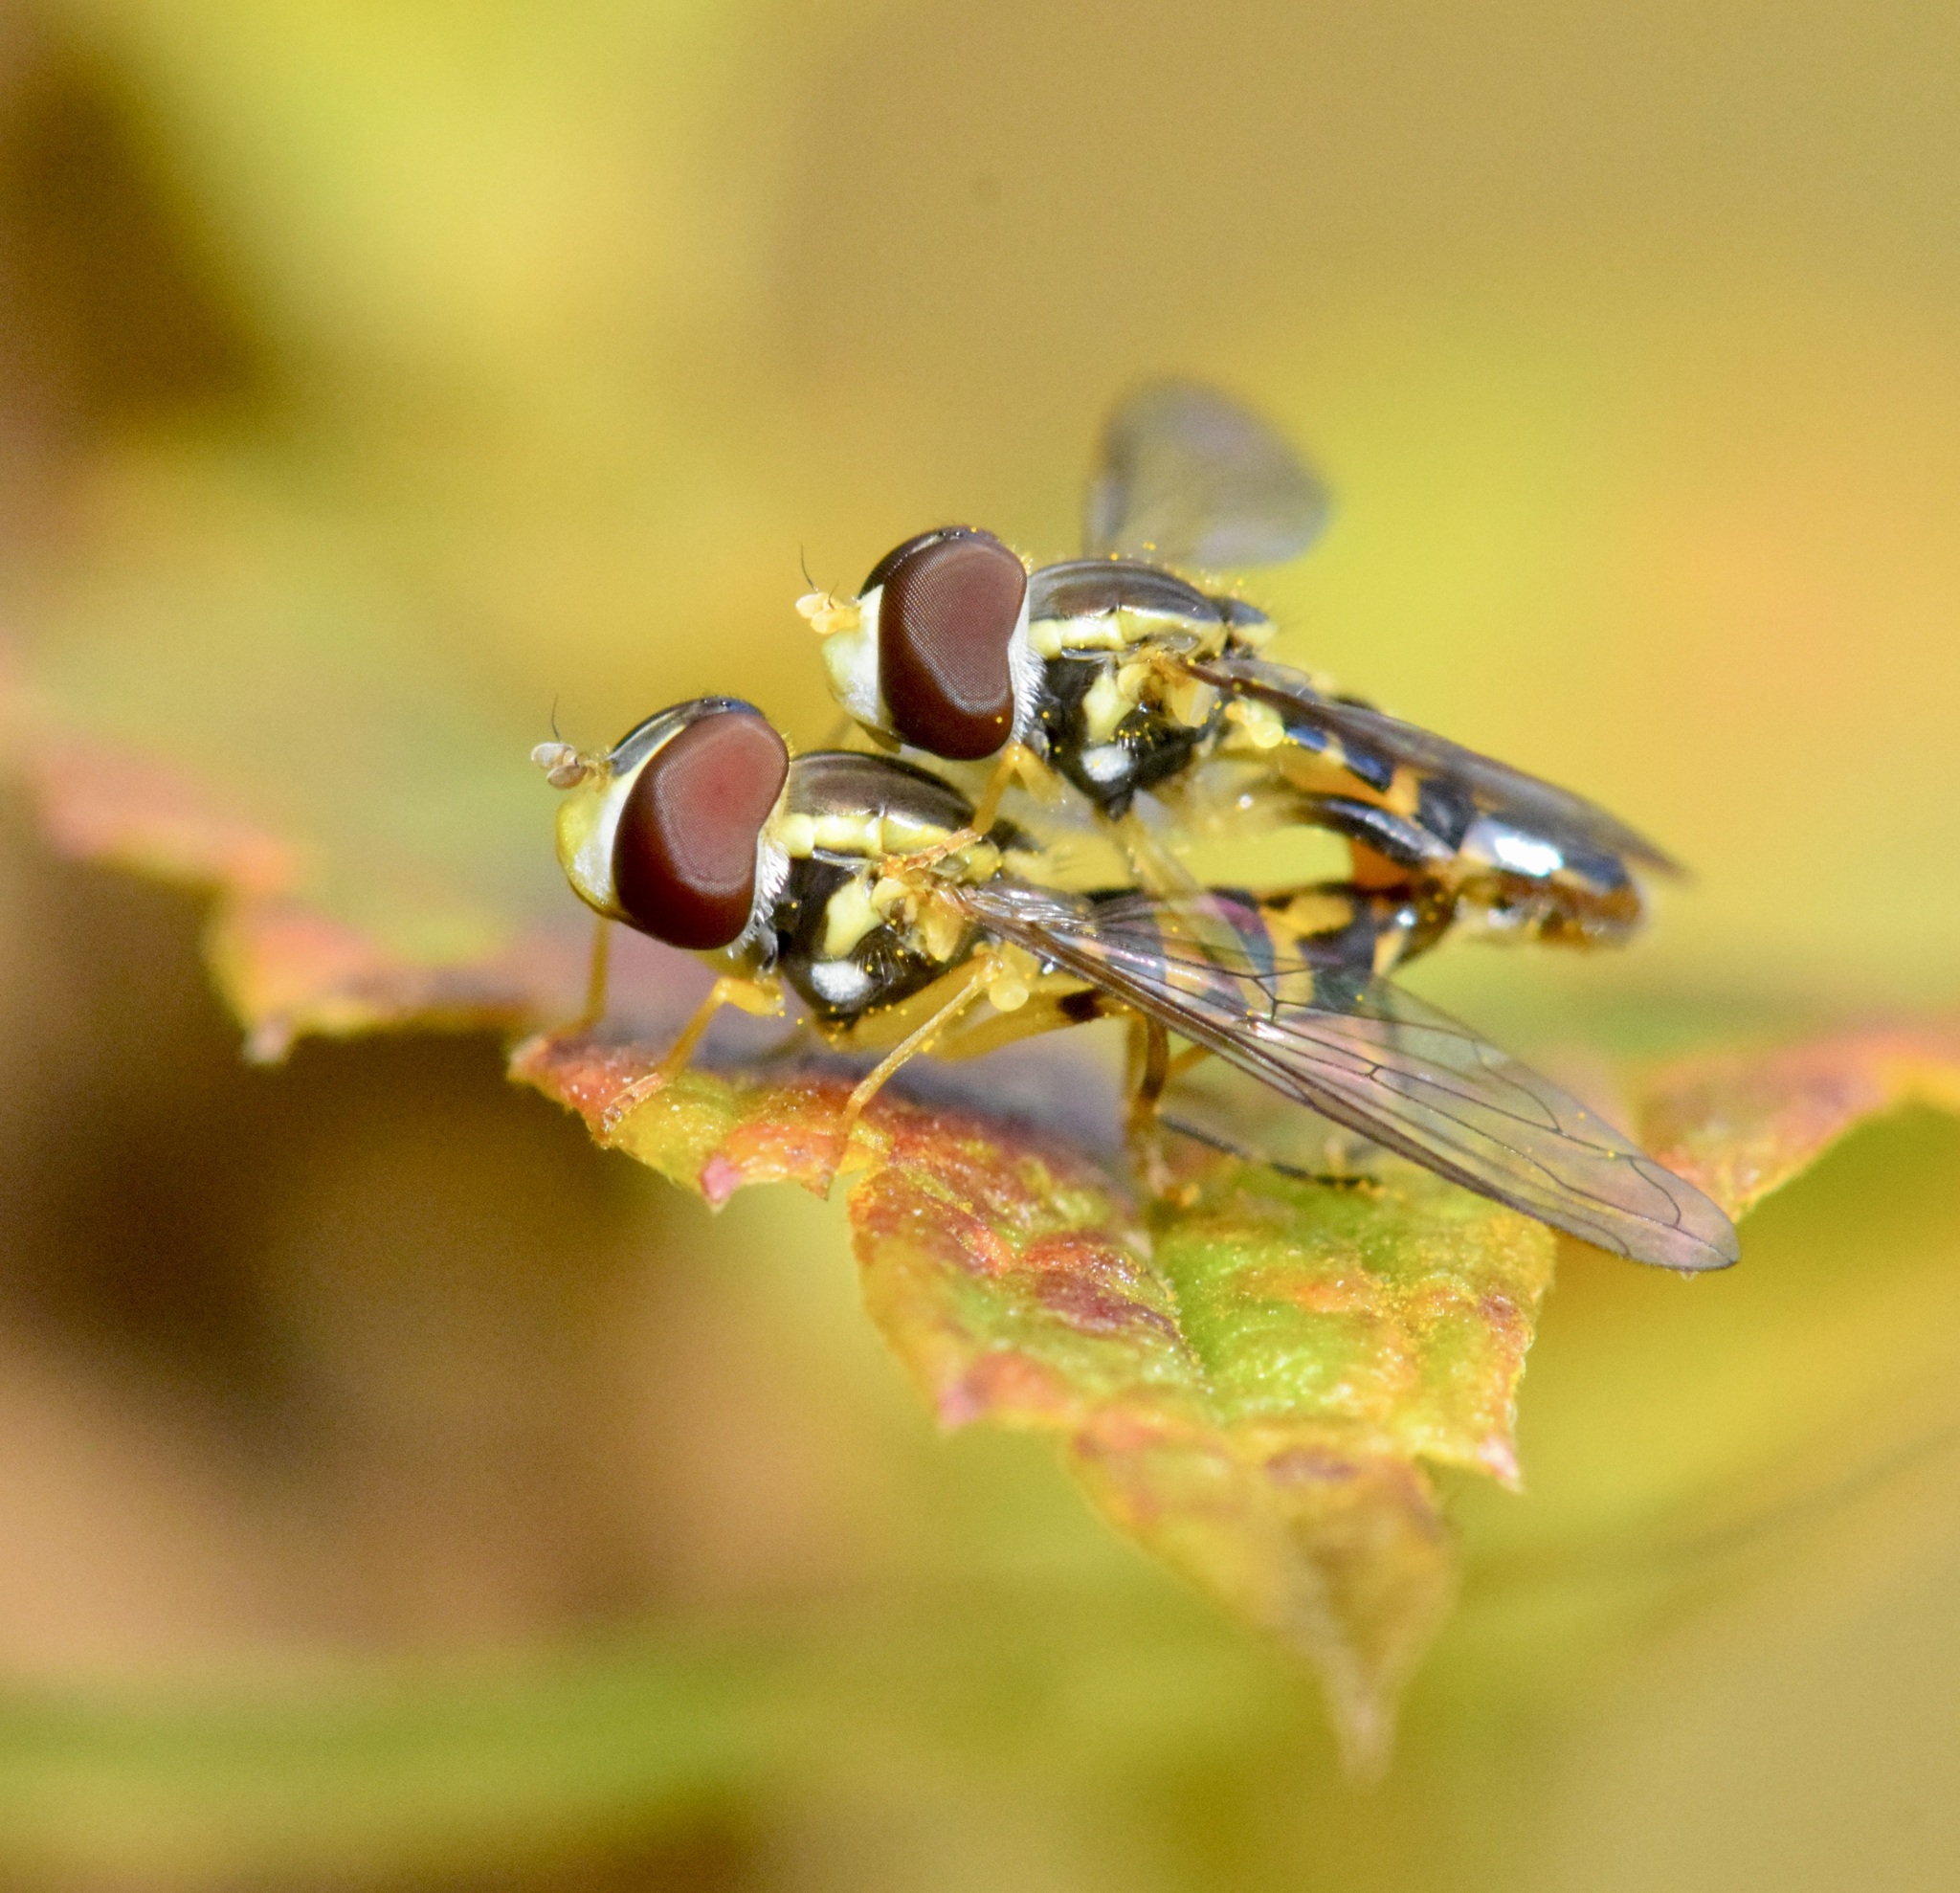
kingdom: Animalia
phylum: Arthropoda
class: Insecta
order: Diptera
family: Syrphidae
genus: Toxomerus
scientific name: Toxomerus geminatus
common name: Eastern calligrapher
